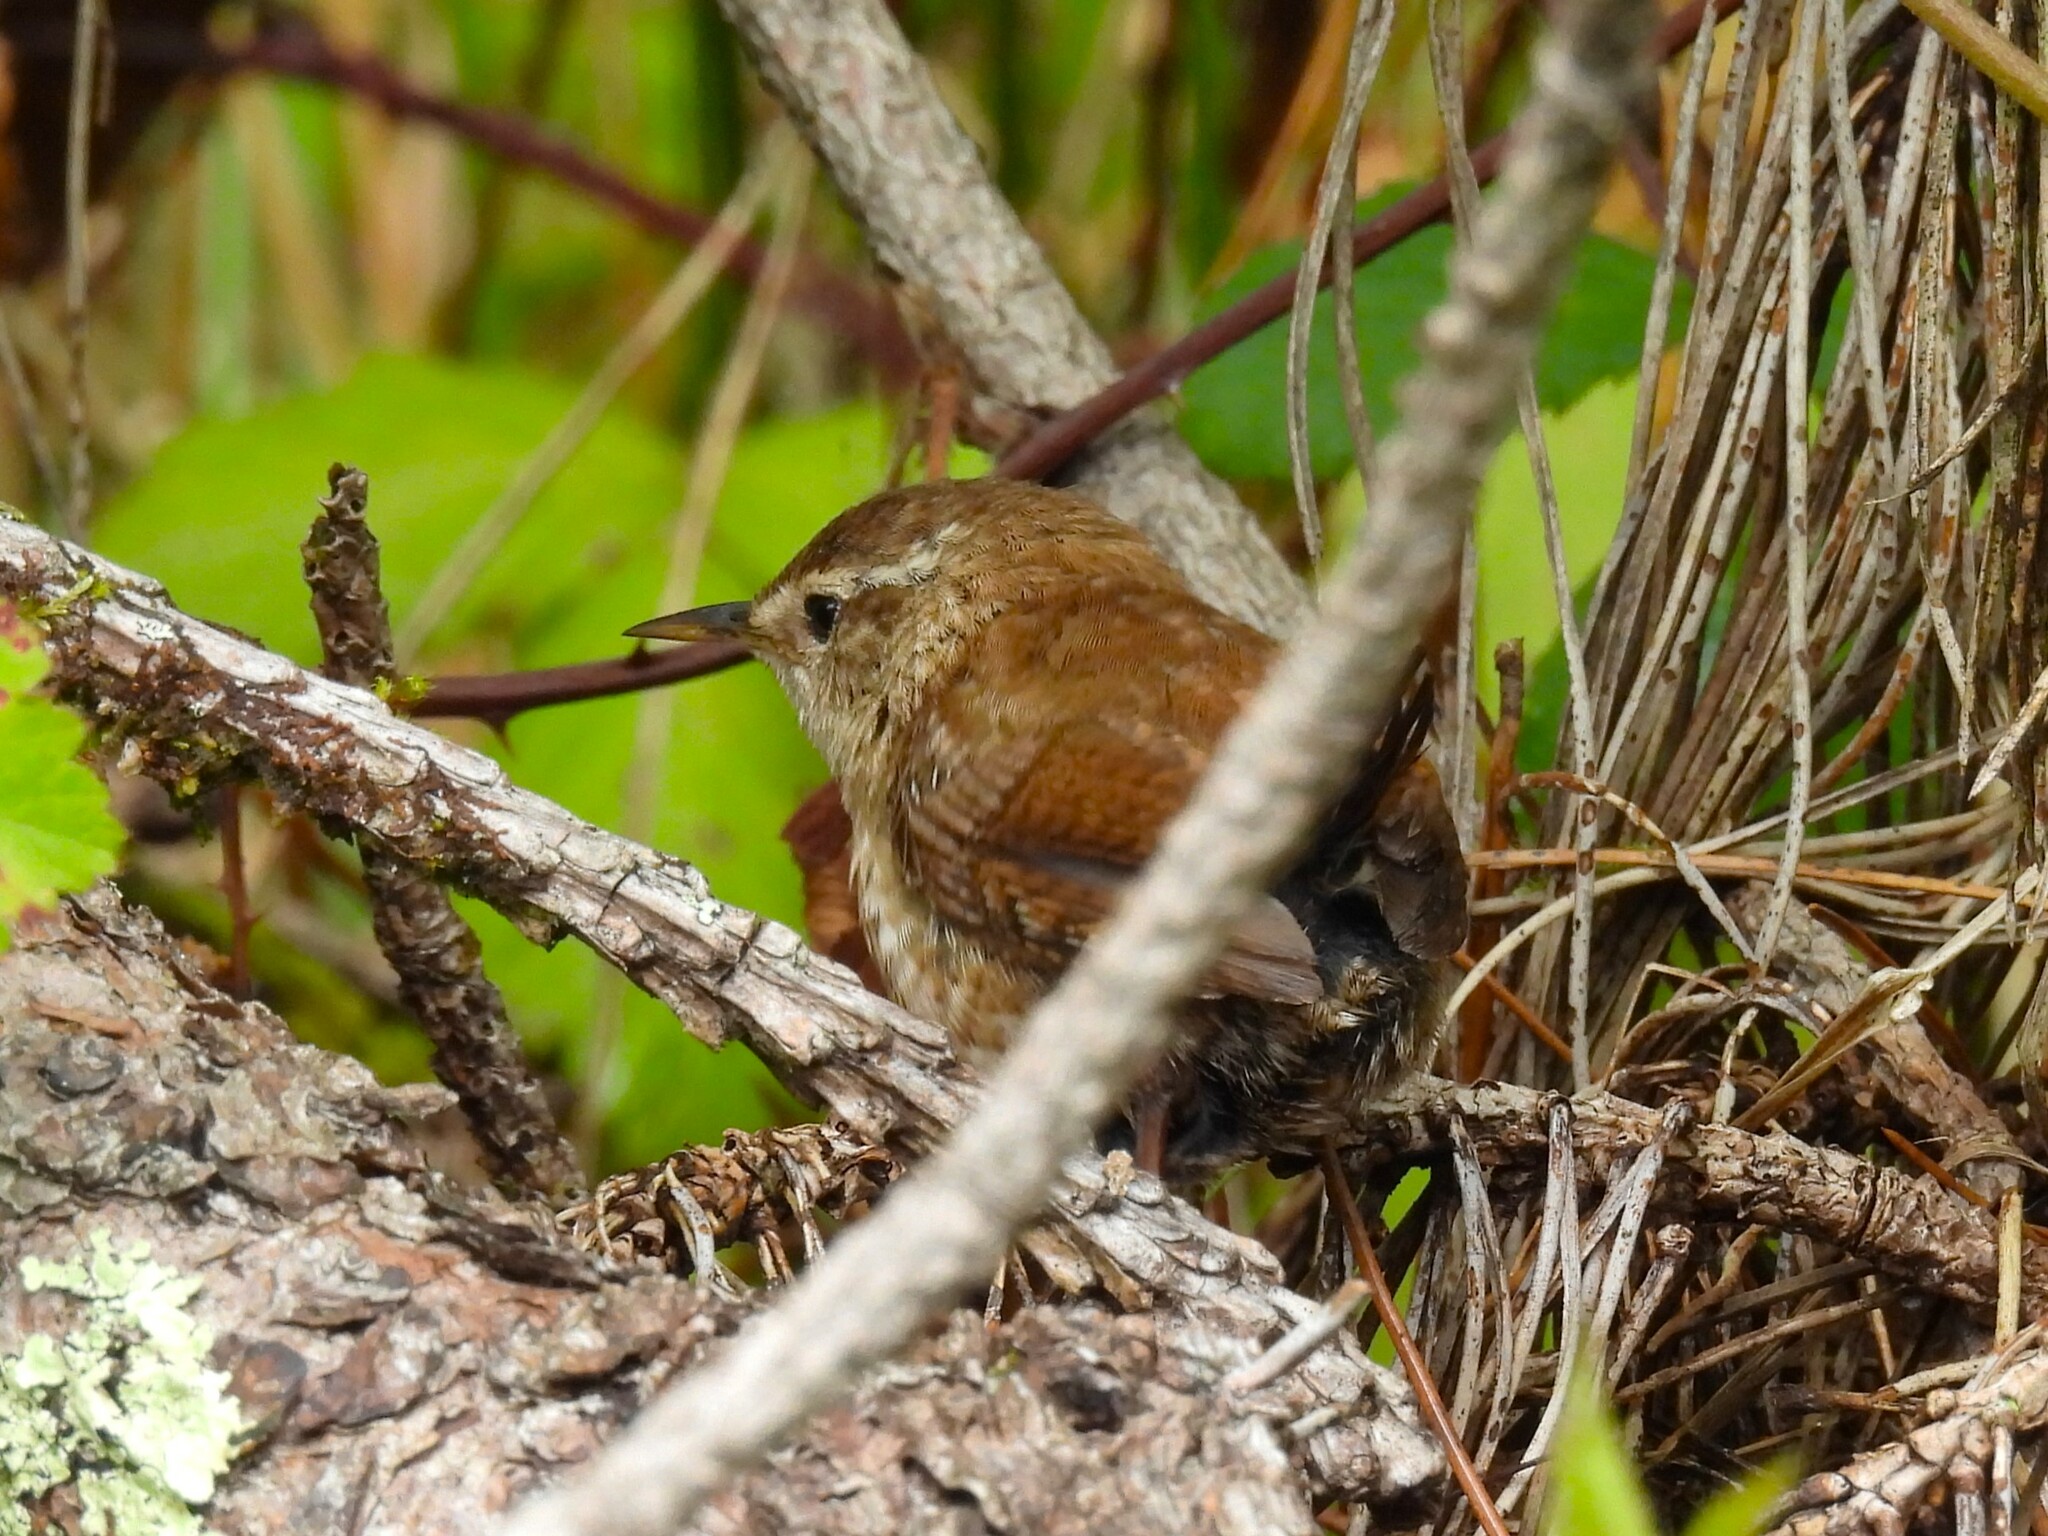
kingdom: Animalia
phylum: Chordata
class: Aves
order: Passeriformes
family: Troglodytidae
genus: Troglodytes
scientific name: Troglodytes troglodytes
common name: Eurasian wren
